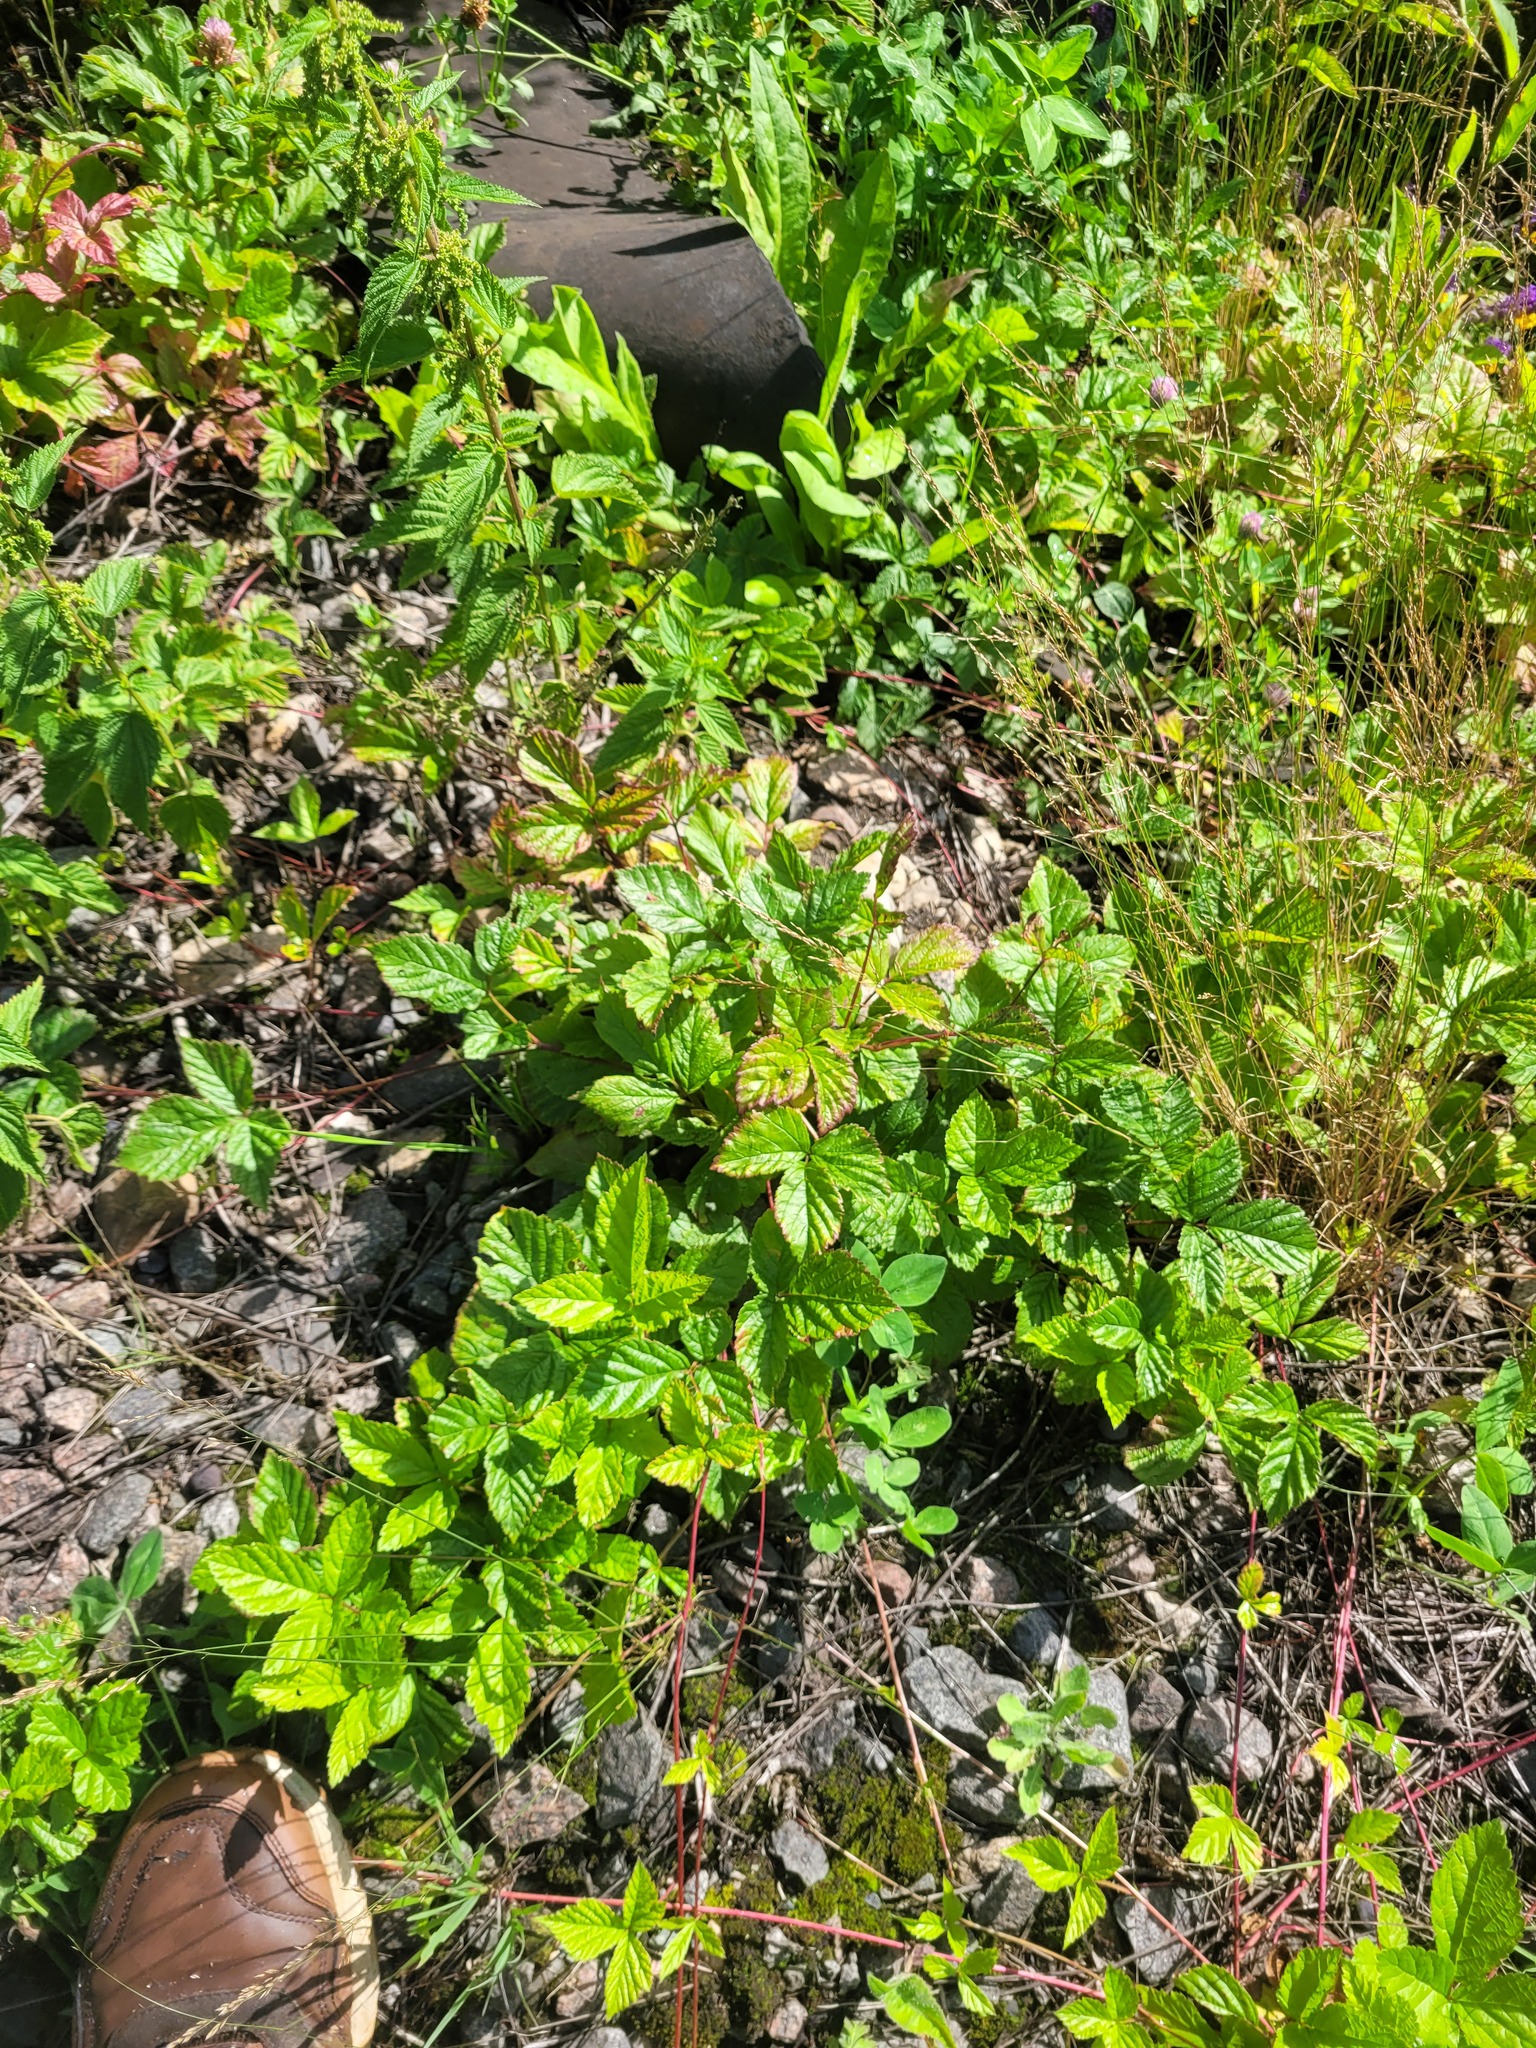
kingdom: Plantae
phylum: Tracheophyta
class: Magnoliopsida
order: Rosales
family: Rosaceae
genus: Rubus
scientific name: Rubus saxatilis
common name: Stone bramble
